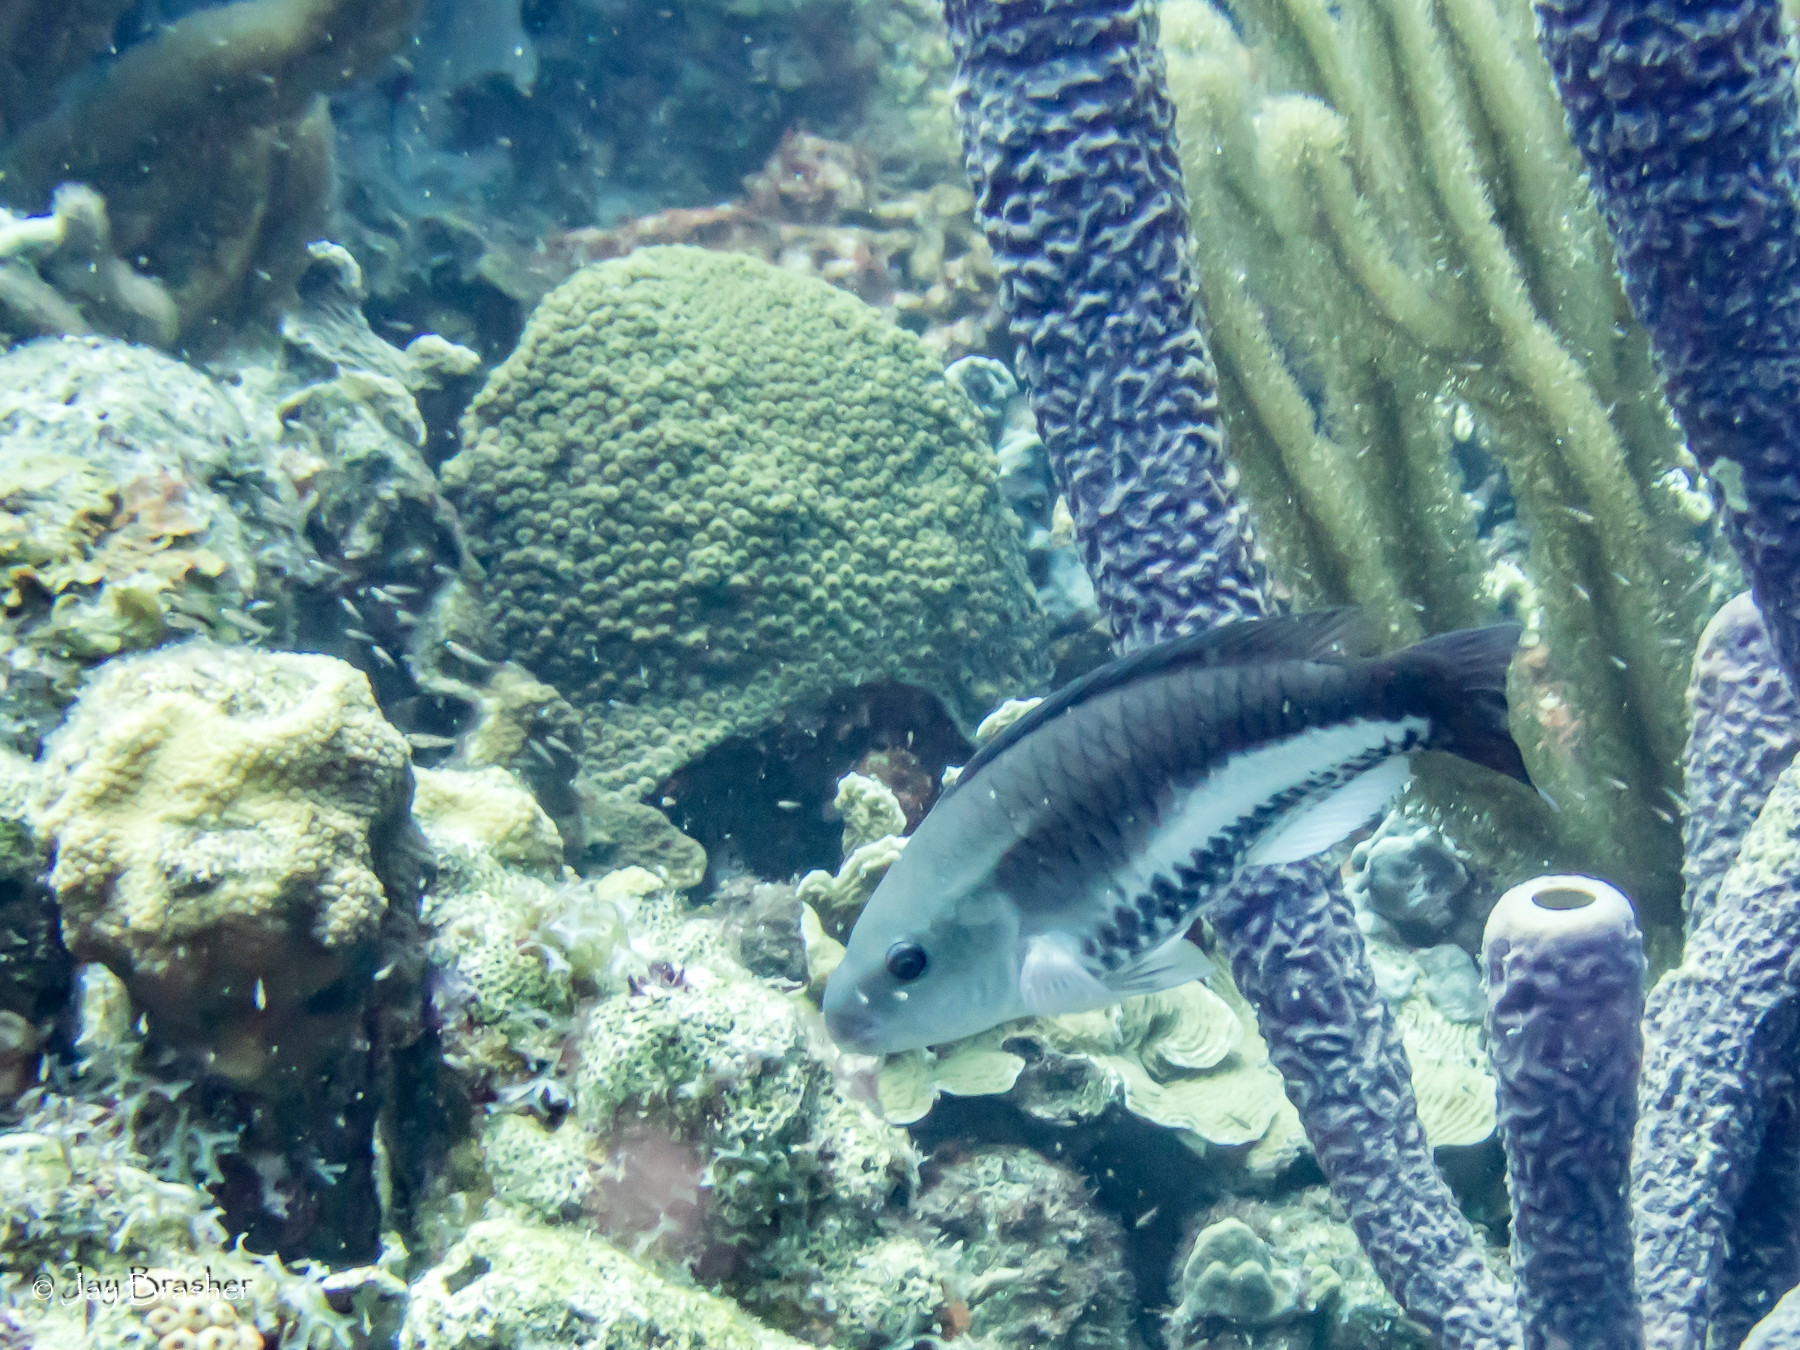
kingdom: Animalia
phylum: Chordata
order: Perciformes
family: Scaridae
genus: Scarus
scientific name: Scarus vetula
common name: Queen parrotfish
